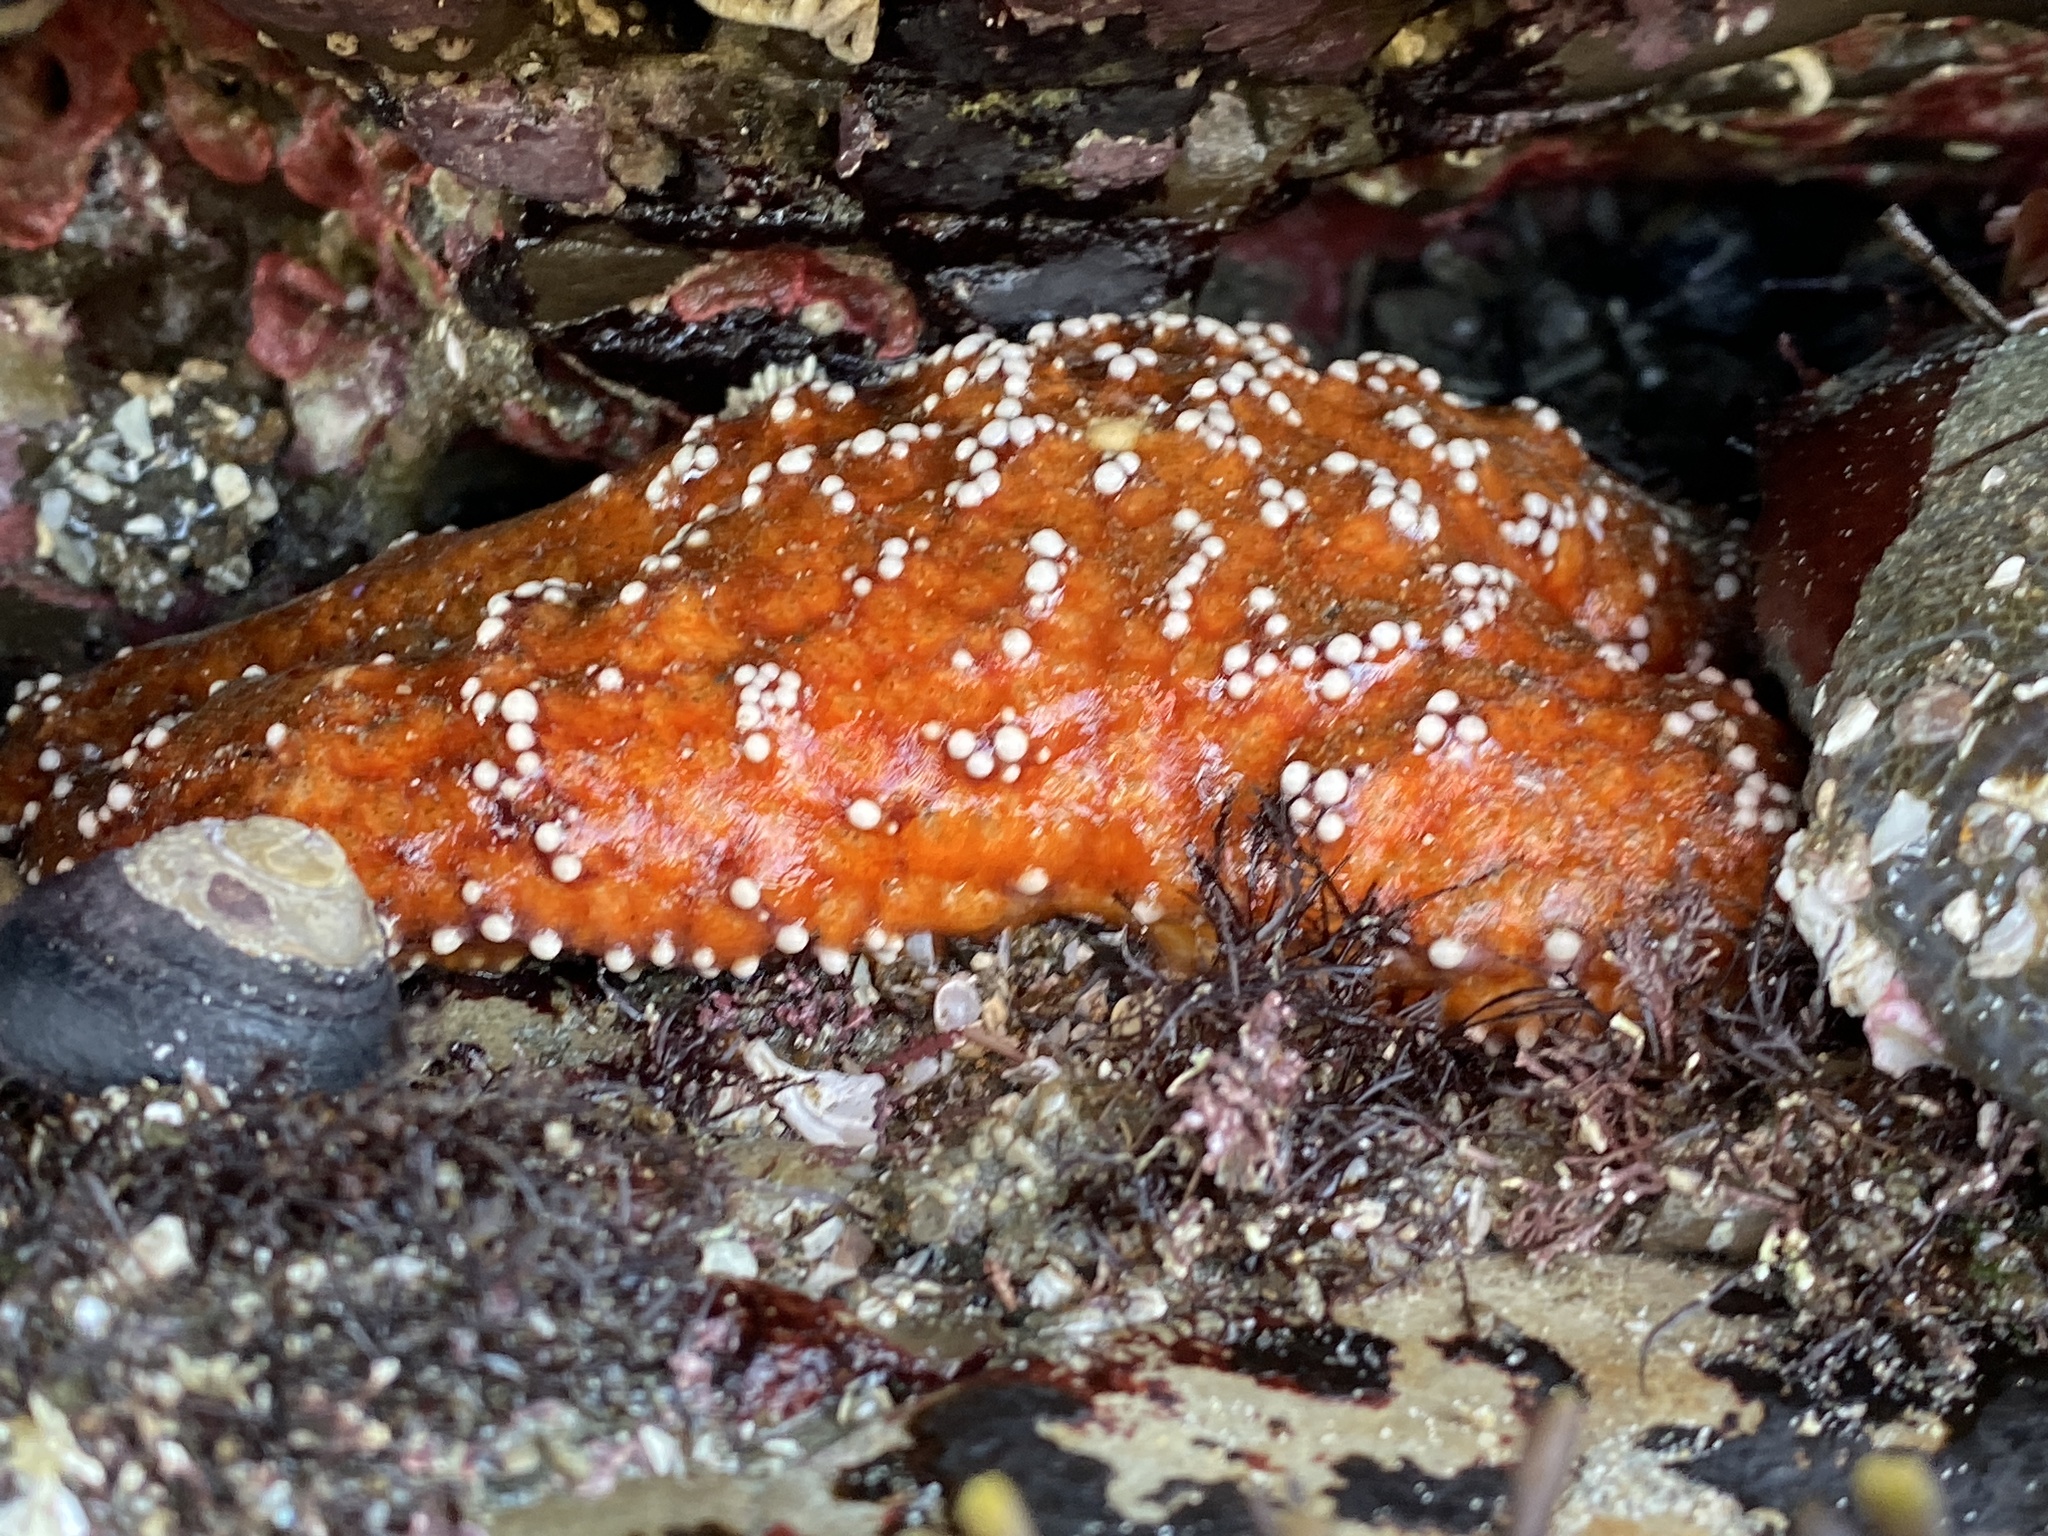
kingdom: Animalia
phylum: Echinodermata
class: Asteroidea
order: Forcipulatida
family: Asteriidae
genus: Pisaster
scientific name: Pisaster ochraceus
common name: Ochre stars
